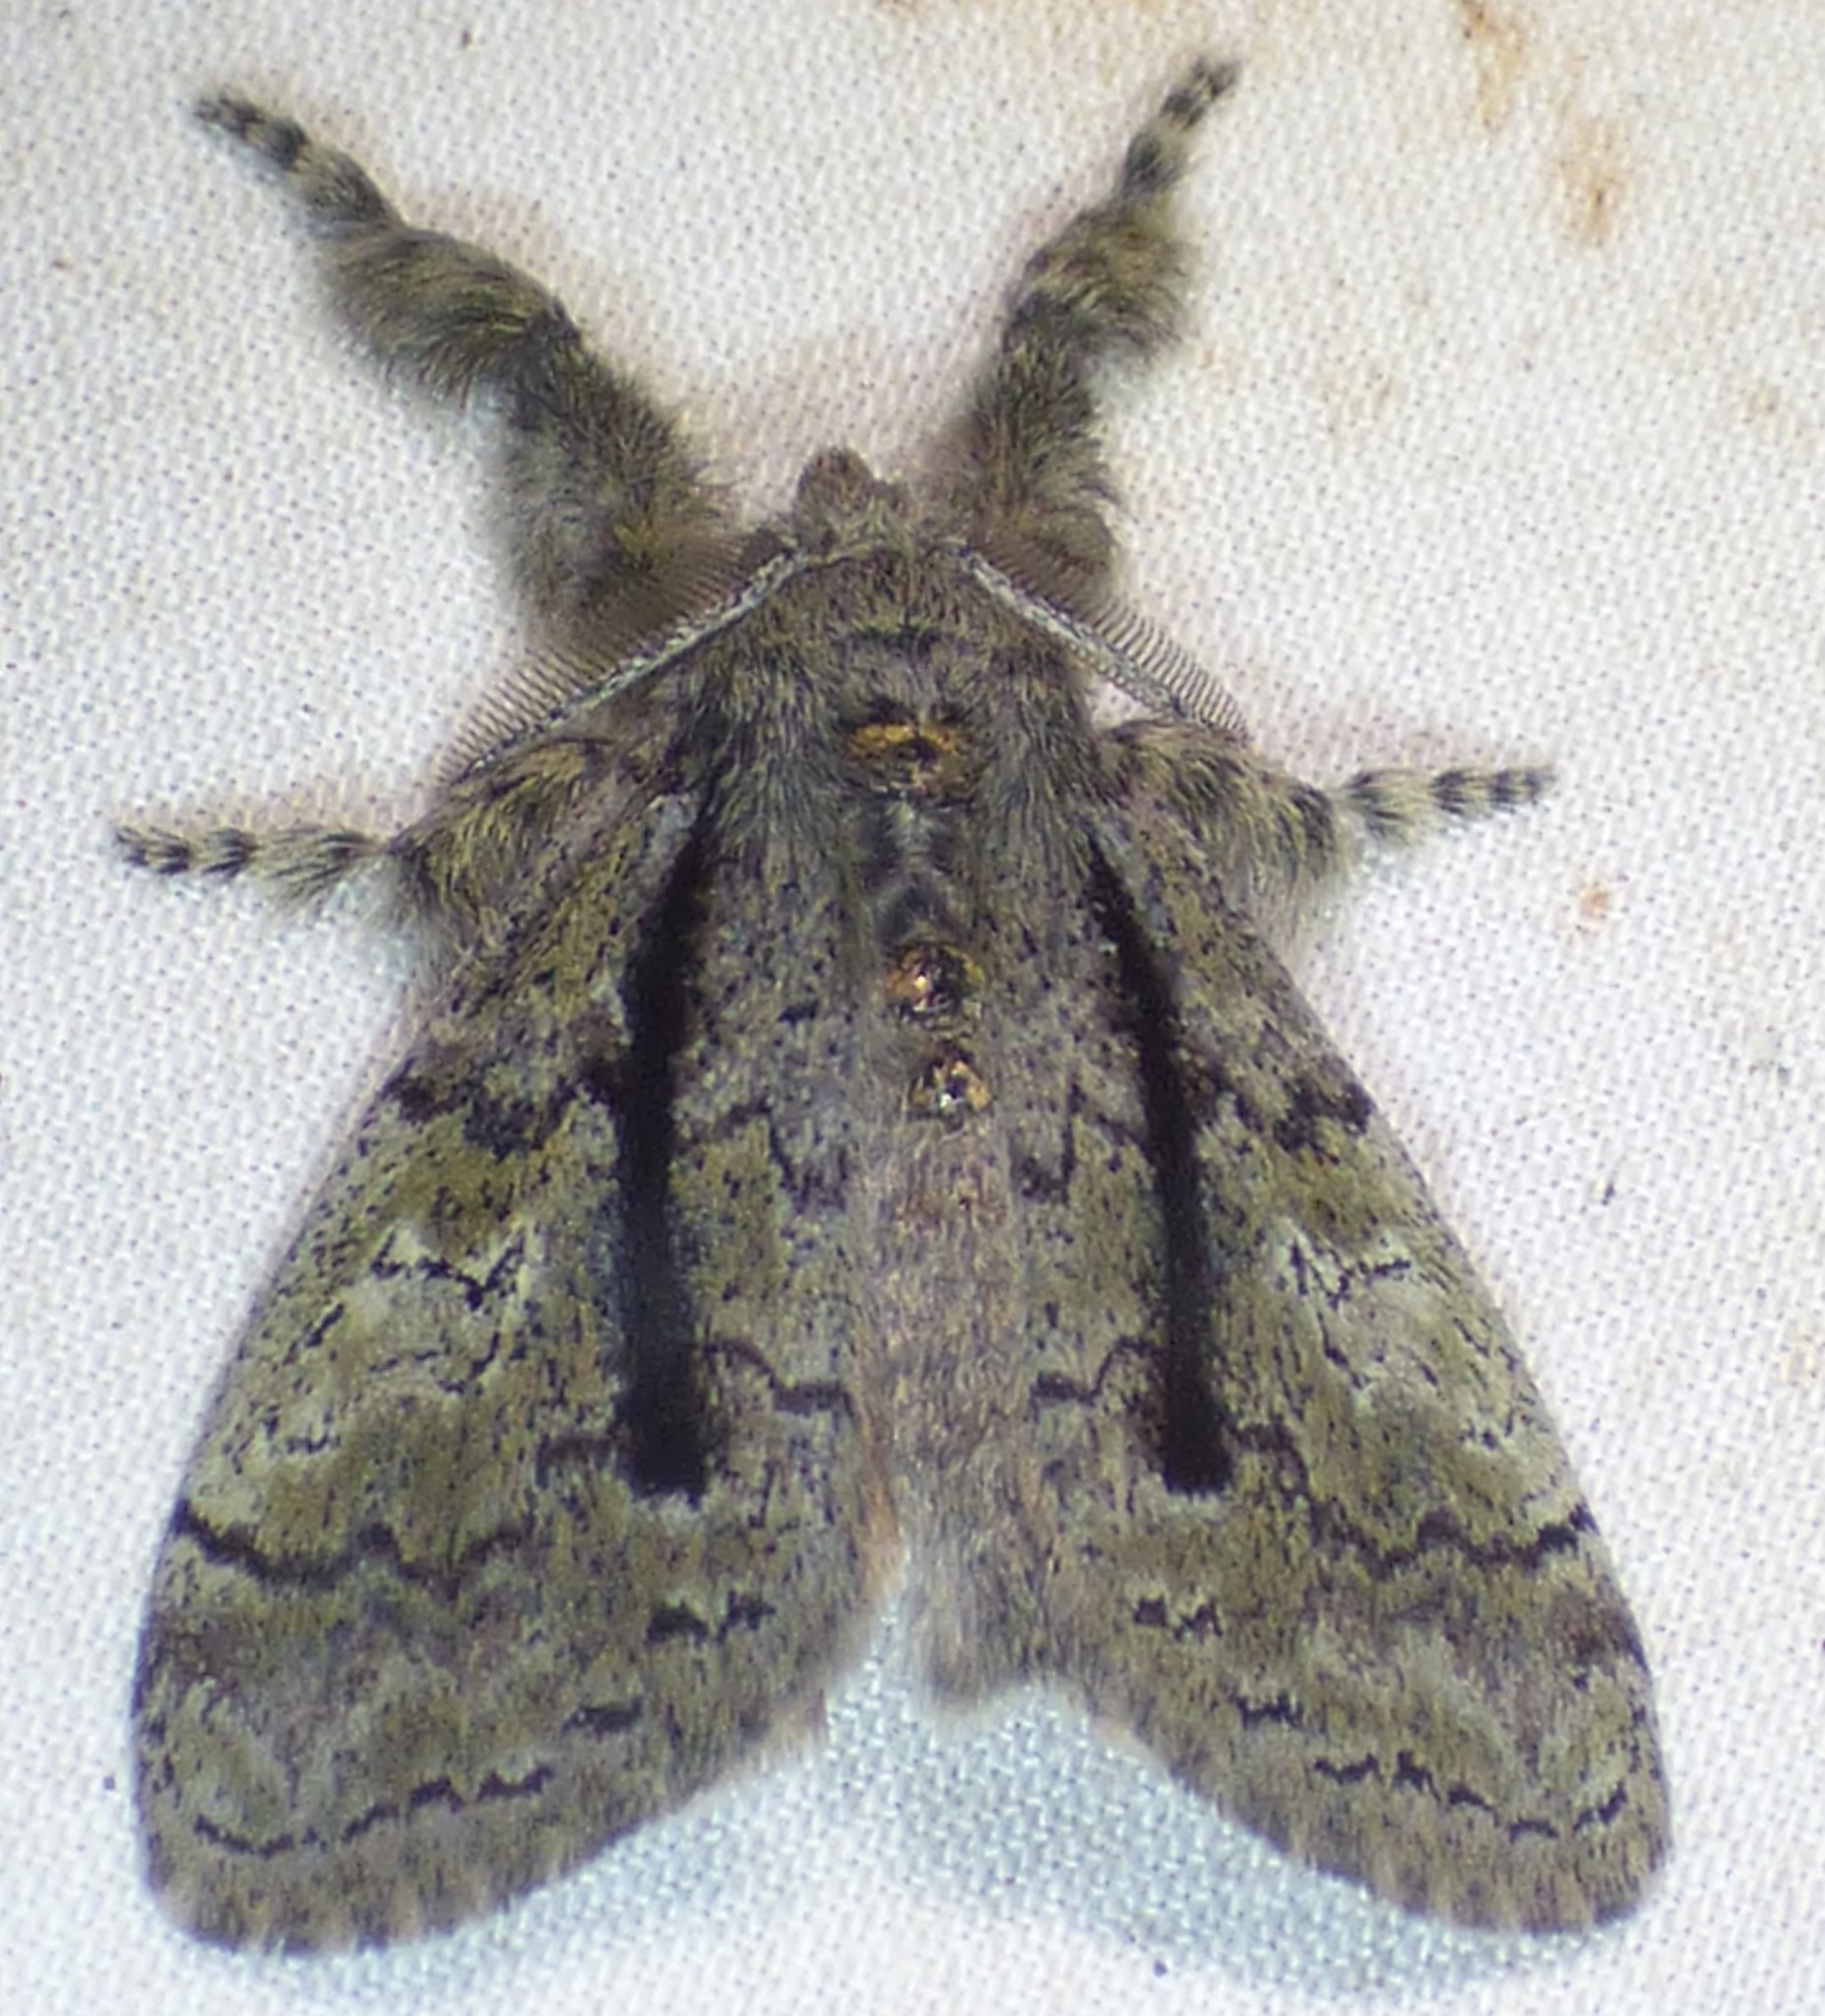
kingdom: Animalia
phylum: Arthropoda
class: Insecta
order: Lepidoptera
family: Erebidae
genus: Dasychira
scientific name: Dasychira tephra
